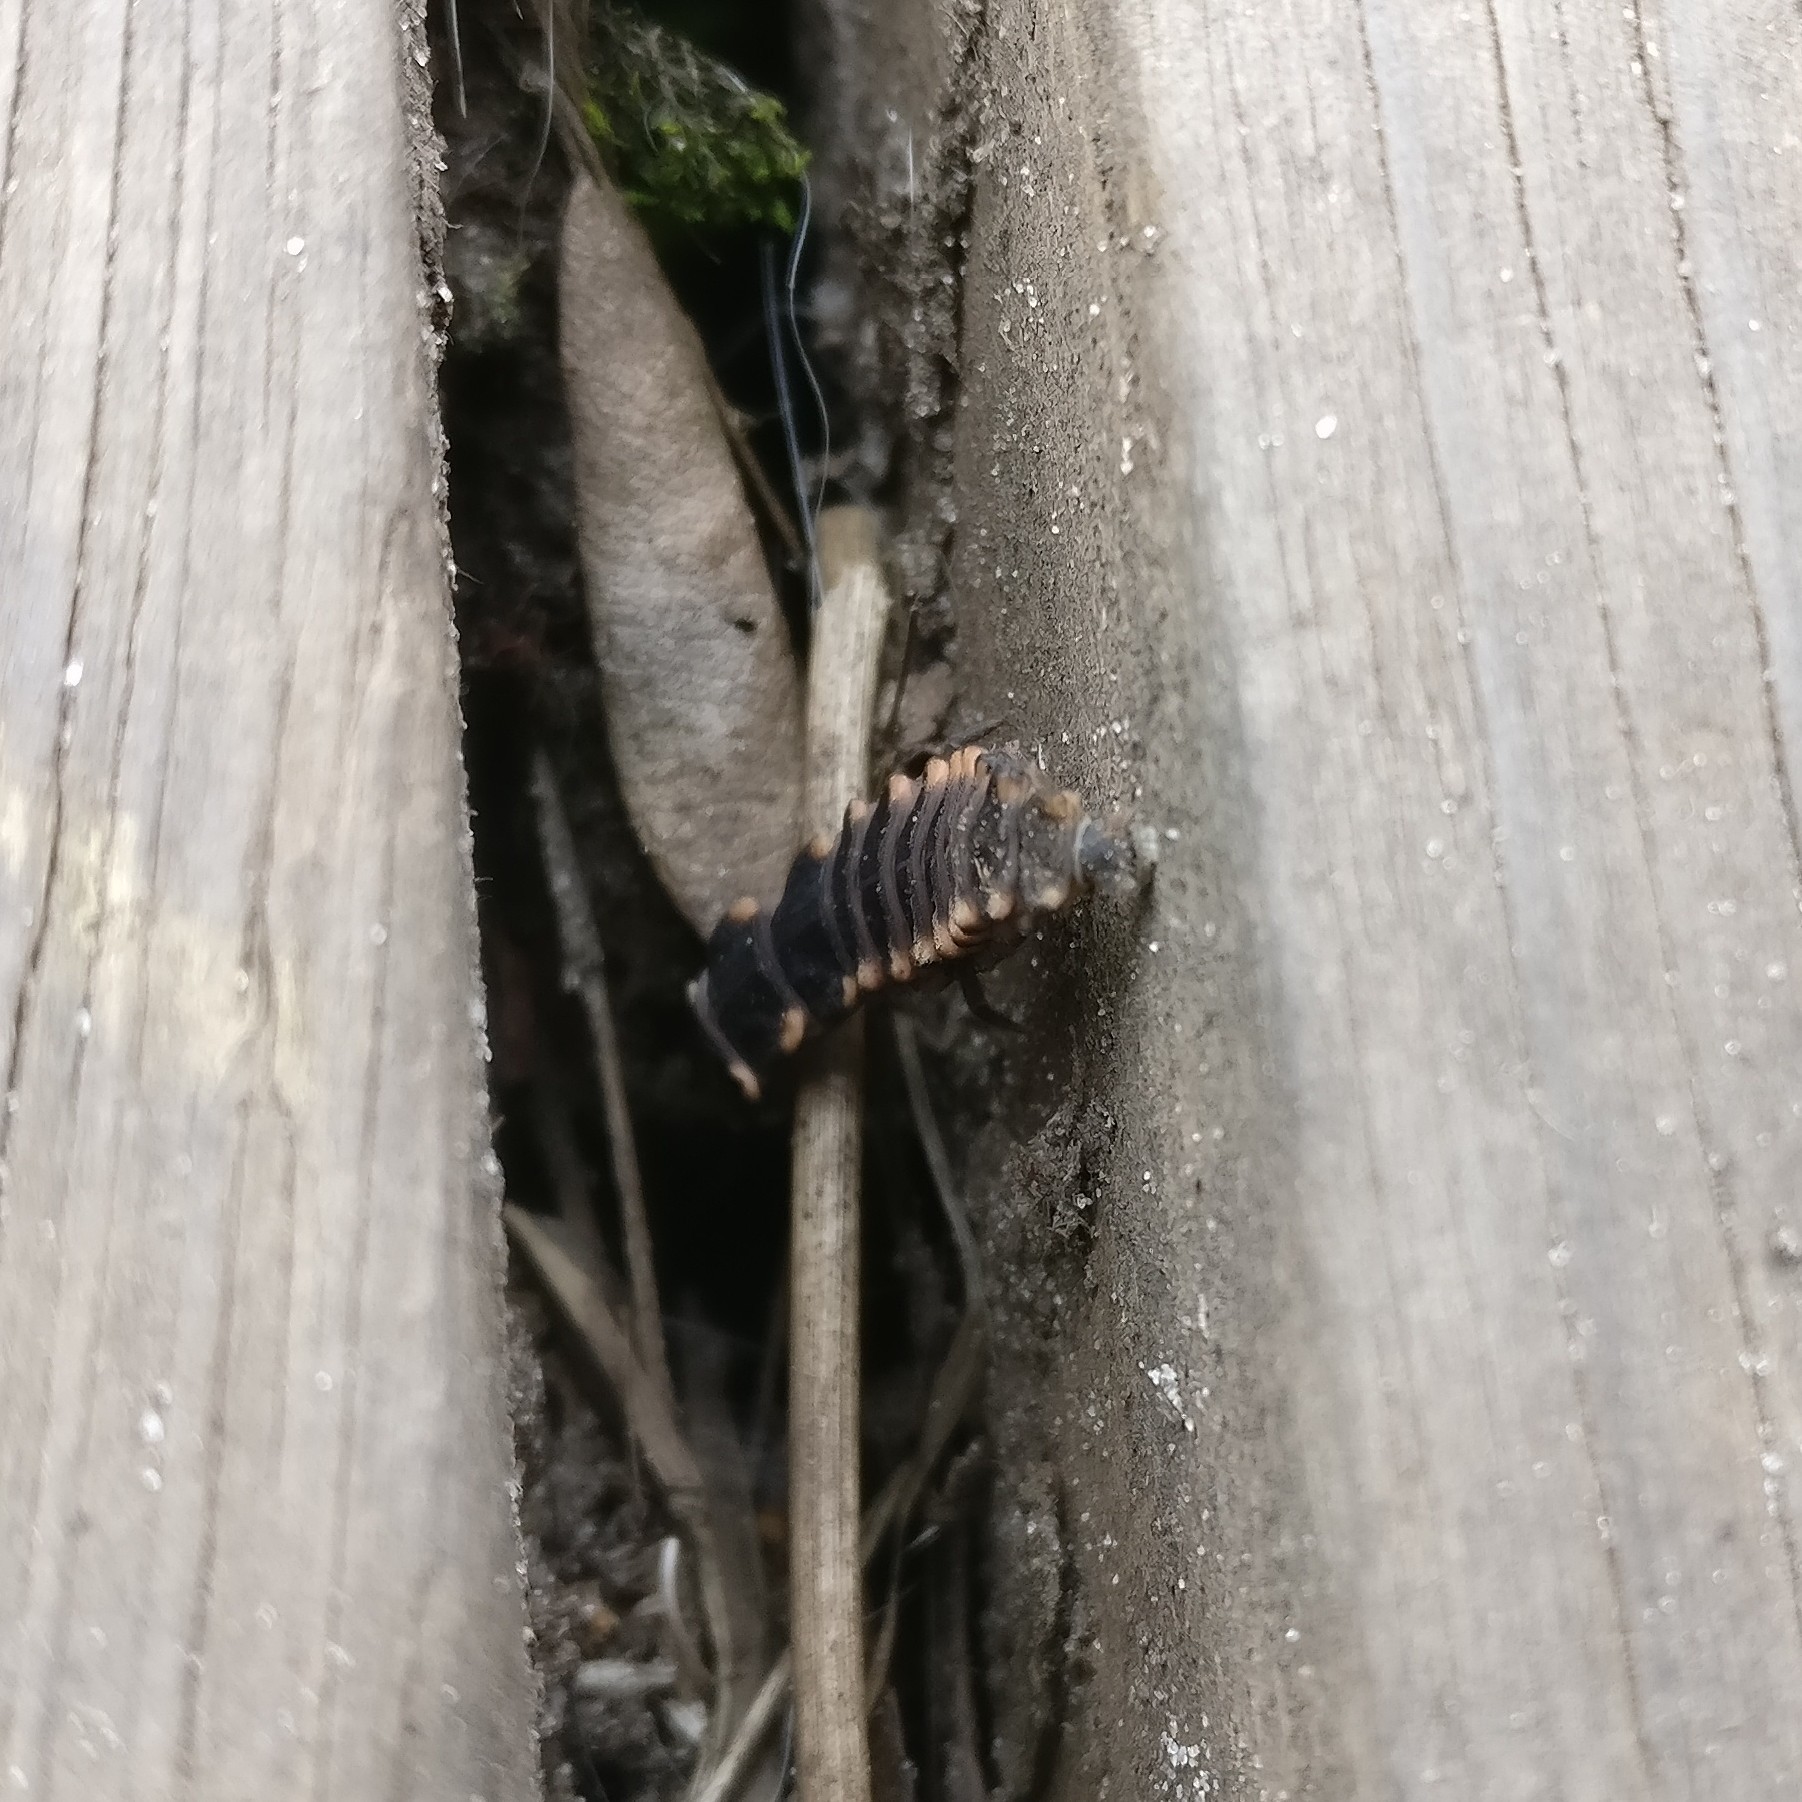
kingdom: Animalia
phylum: Arthropoda
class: Insecta
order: Coleoptera
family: Lampyridae
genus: Lampyris
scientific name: Lampyris noctiluca
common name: Glow-worm
